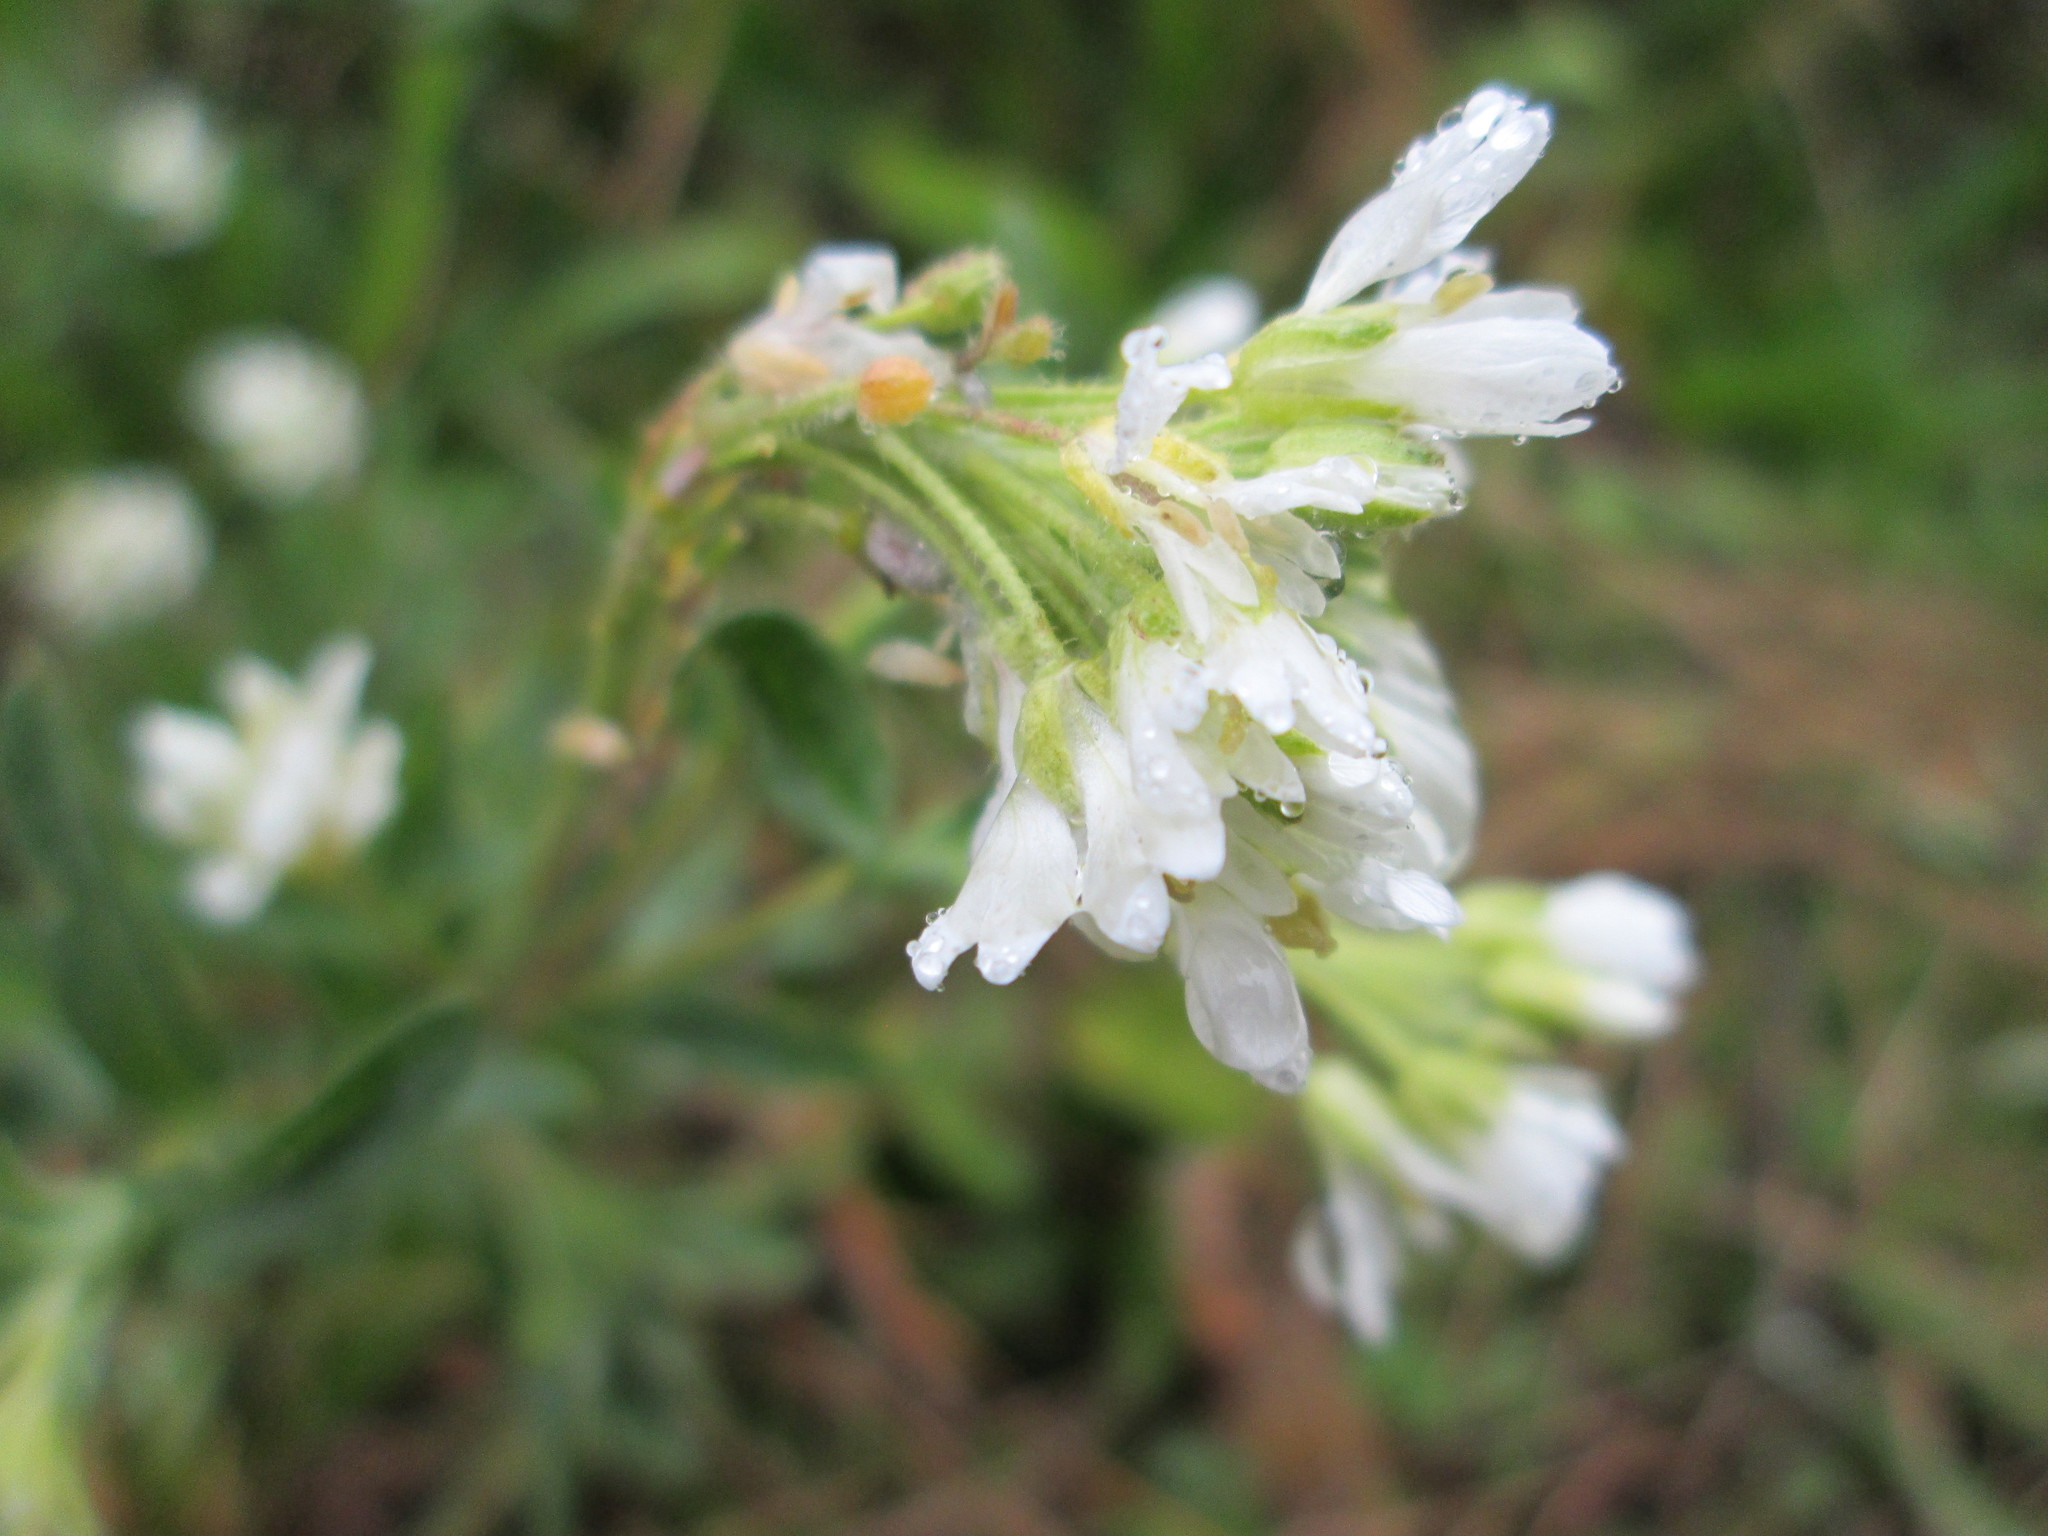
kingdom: Plantae
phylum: Tracheophyta
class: Magnoliopsida
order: Brassicales
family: Brassicaceae
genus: Berteroa
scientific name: Berteroa incana
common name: Hoary alison
